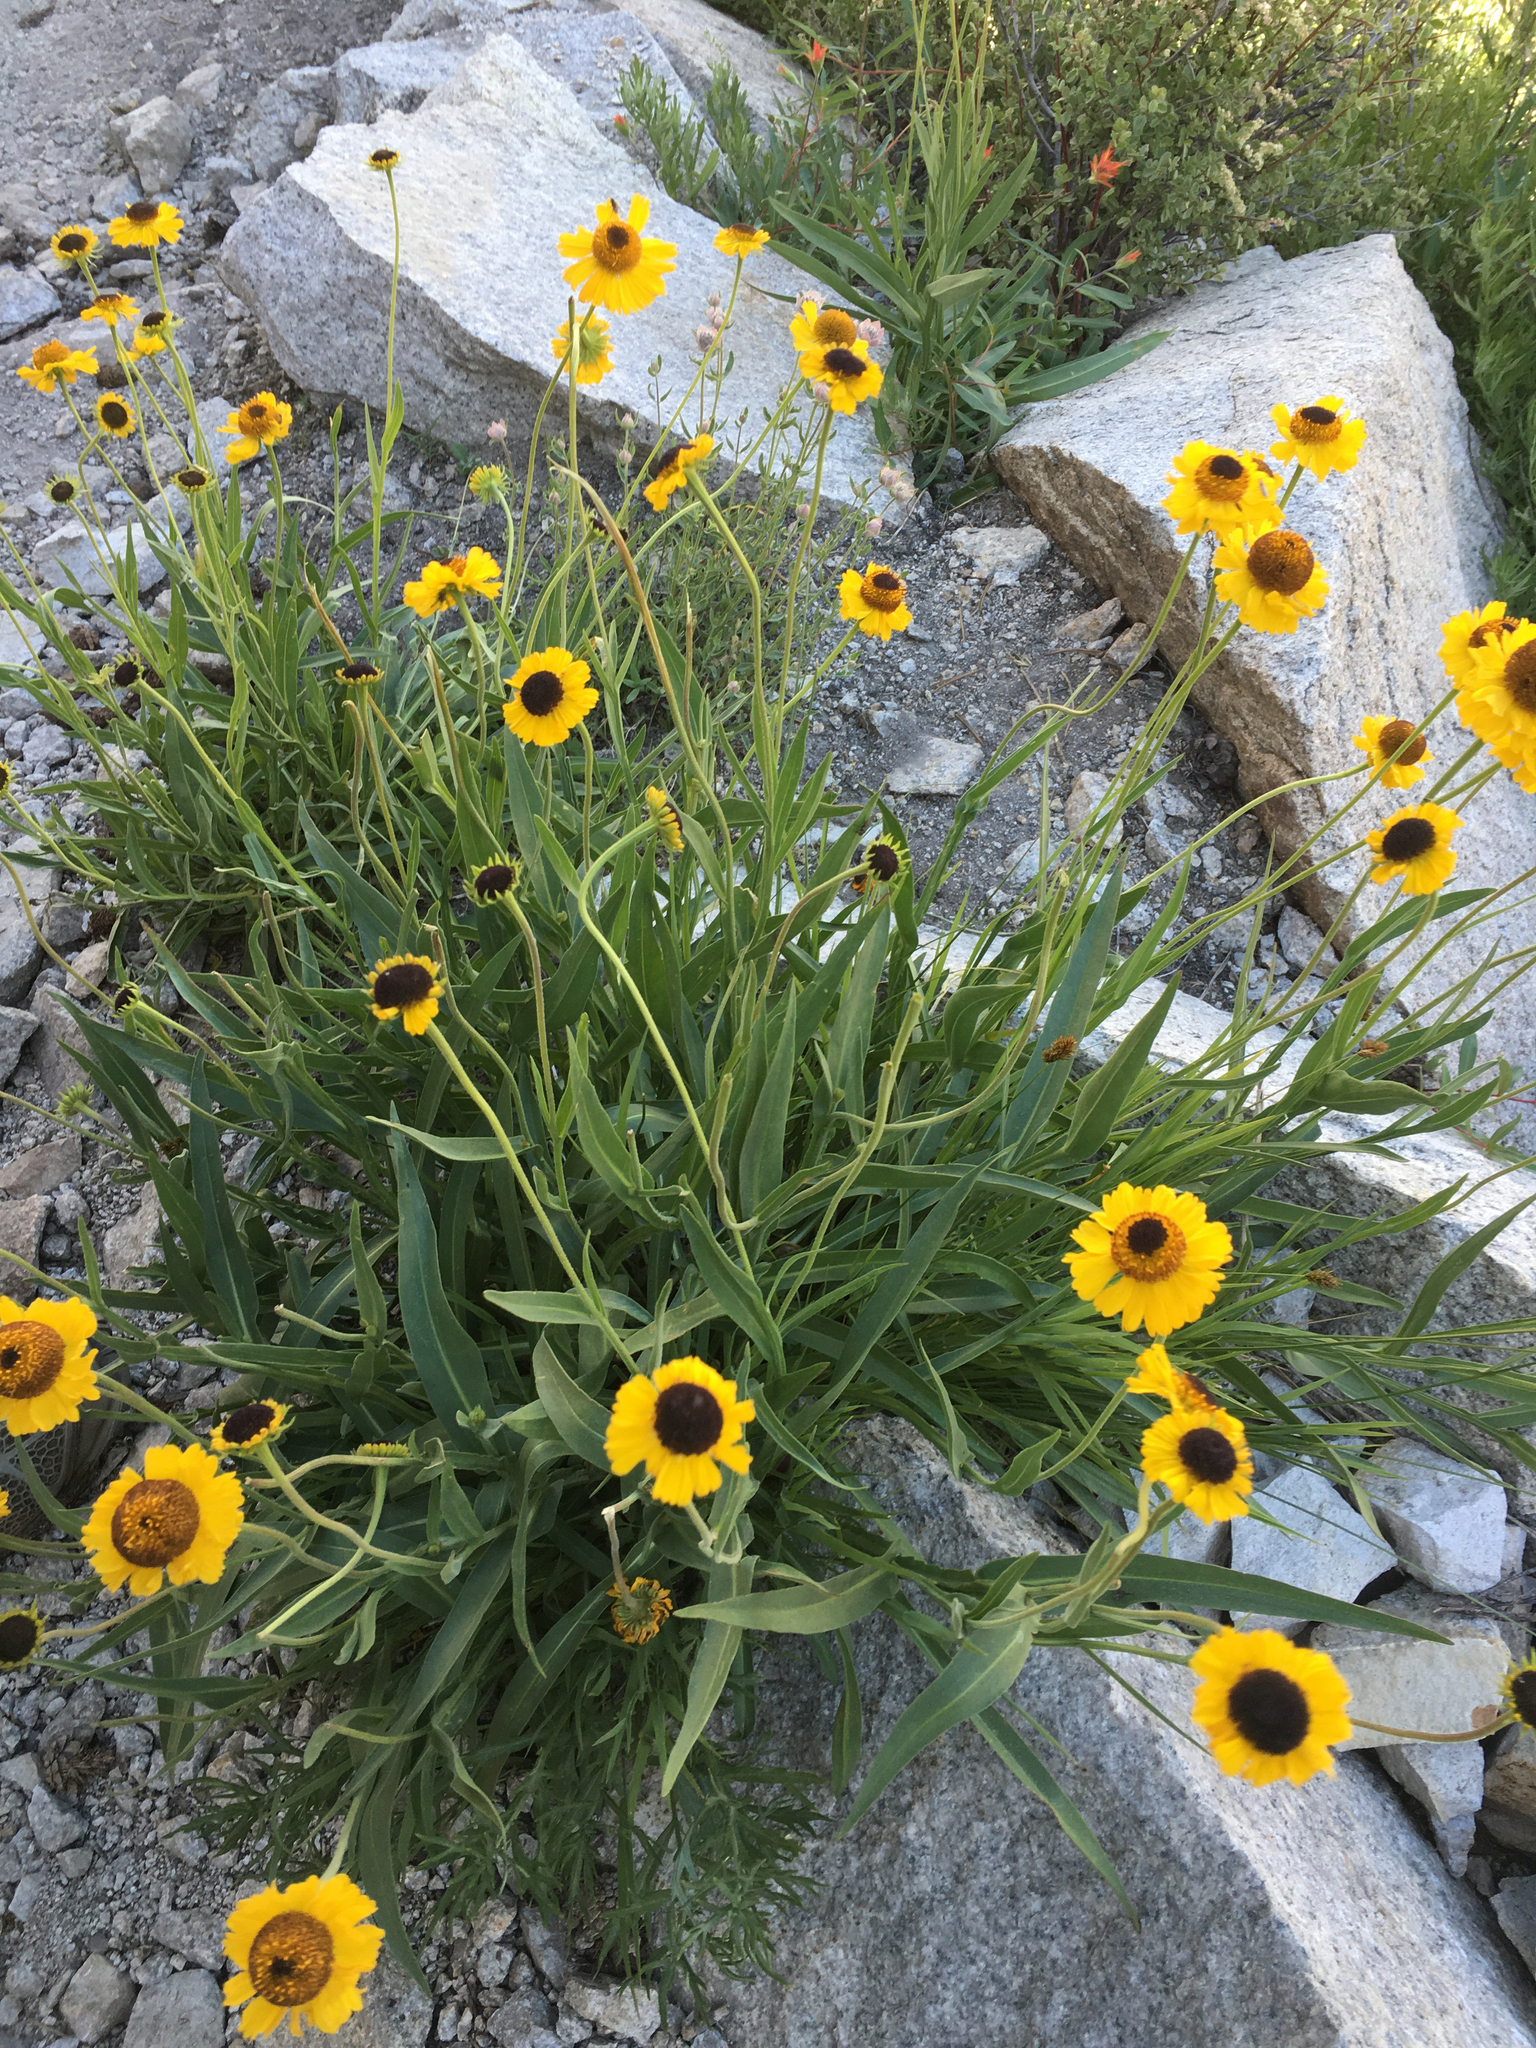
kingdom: Plantae
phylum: Tracheophyta
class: Magnoliopsida
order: Asterales
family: Asteraceae
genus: Helenium
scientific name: Helenium bigelovii
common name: Bigelow's sneezeweed
